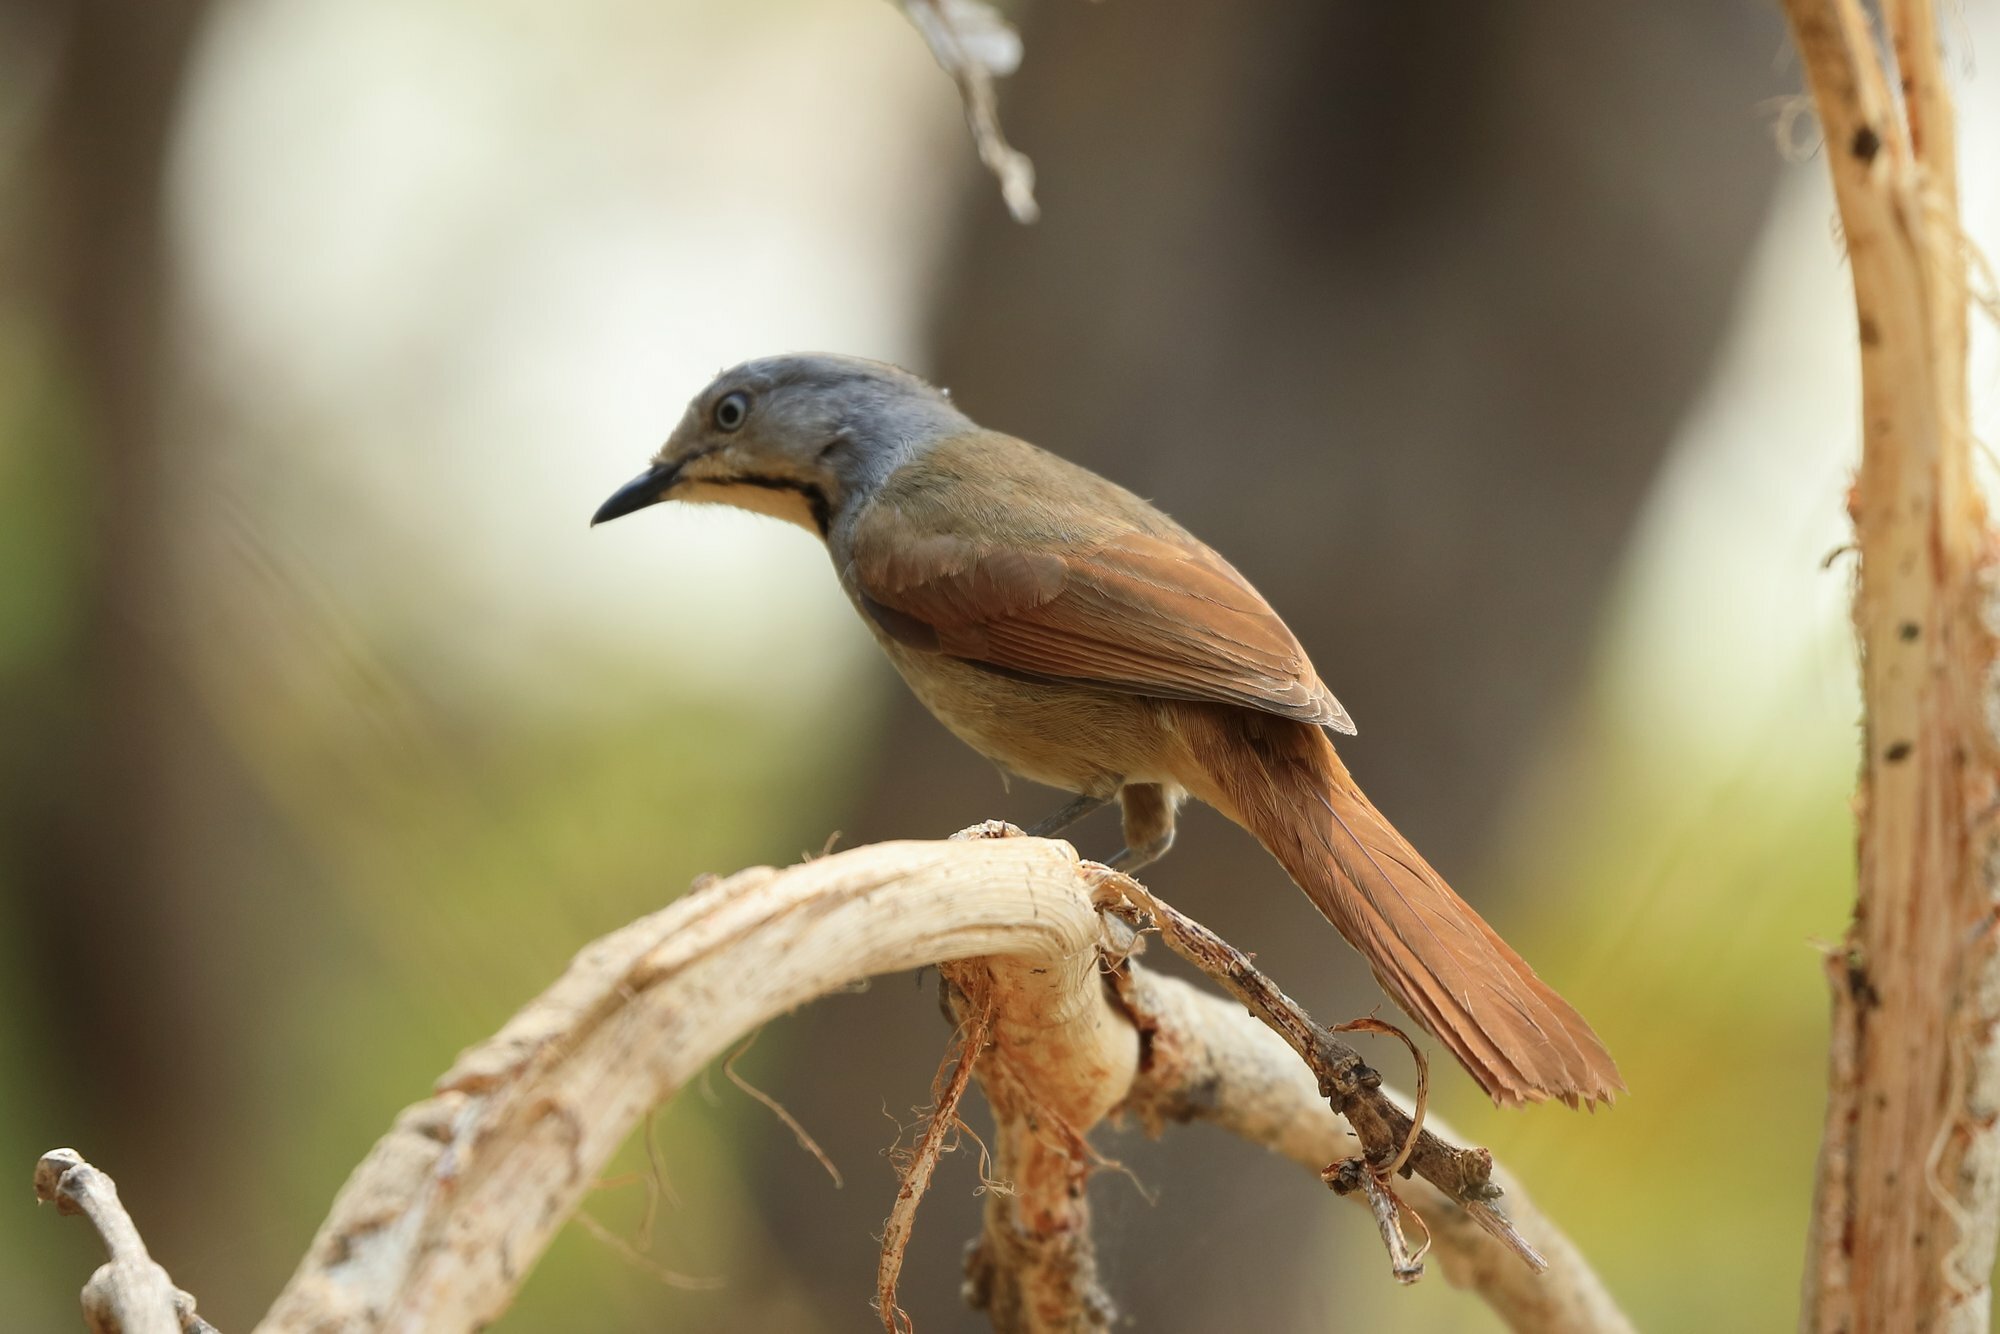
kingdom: Animalia
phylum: Chordata
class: Aves
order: Passeriformes
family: Muscicapidae
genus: Cichladusa
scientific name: Cichladusa arquata
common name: Collared palm thrush
